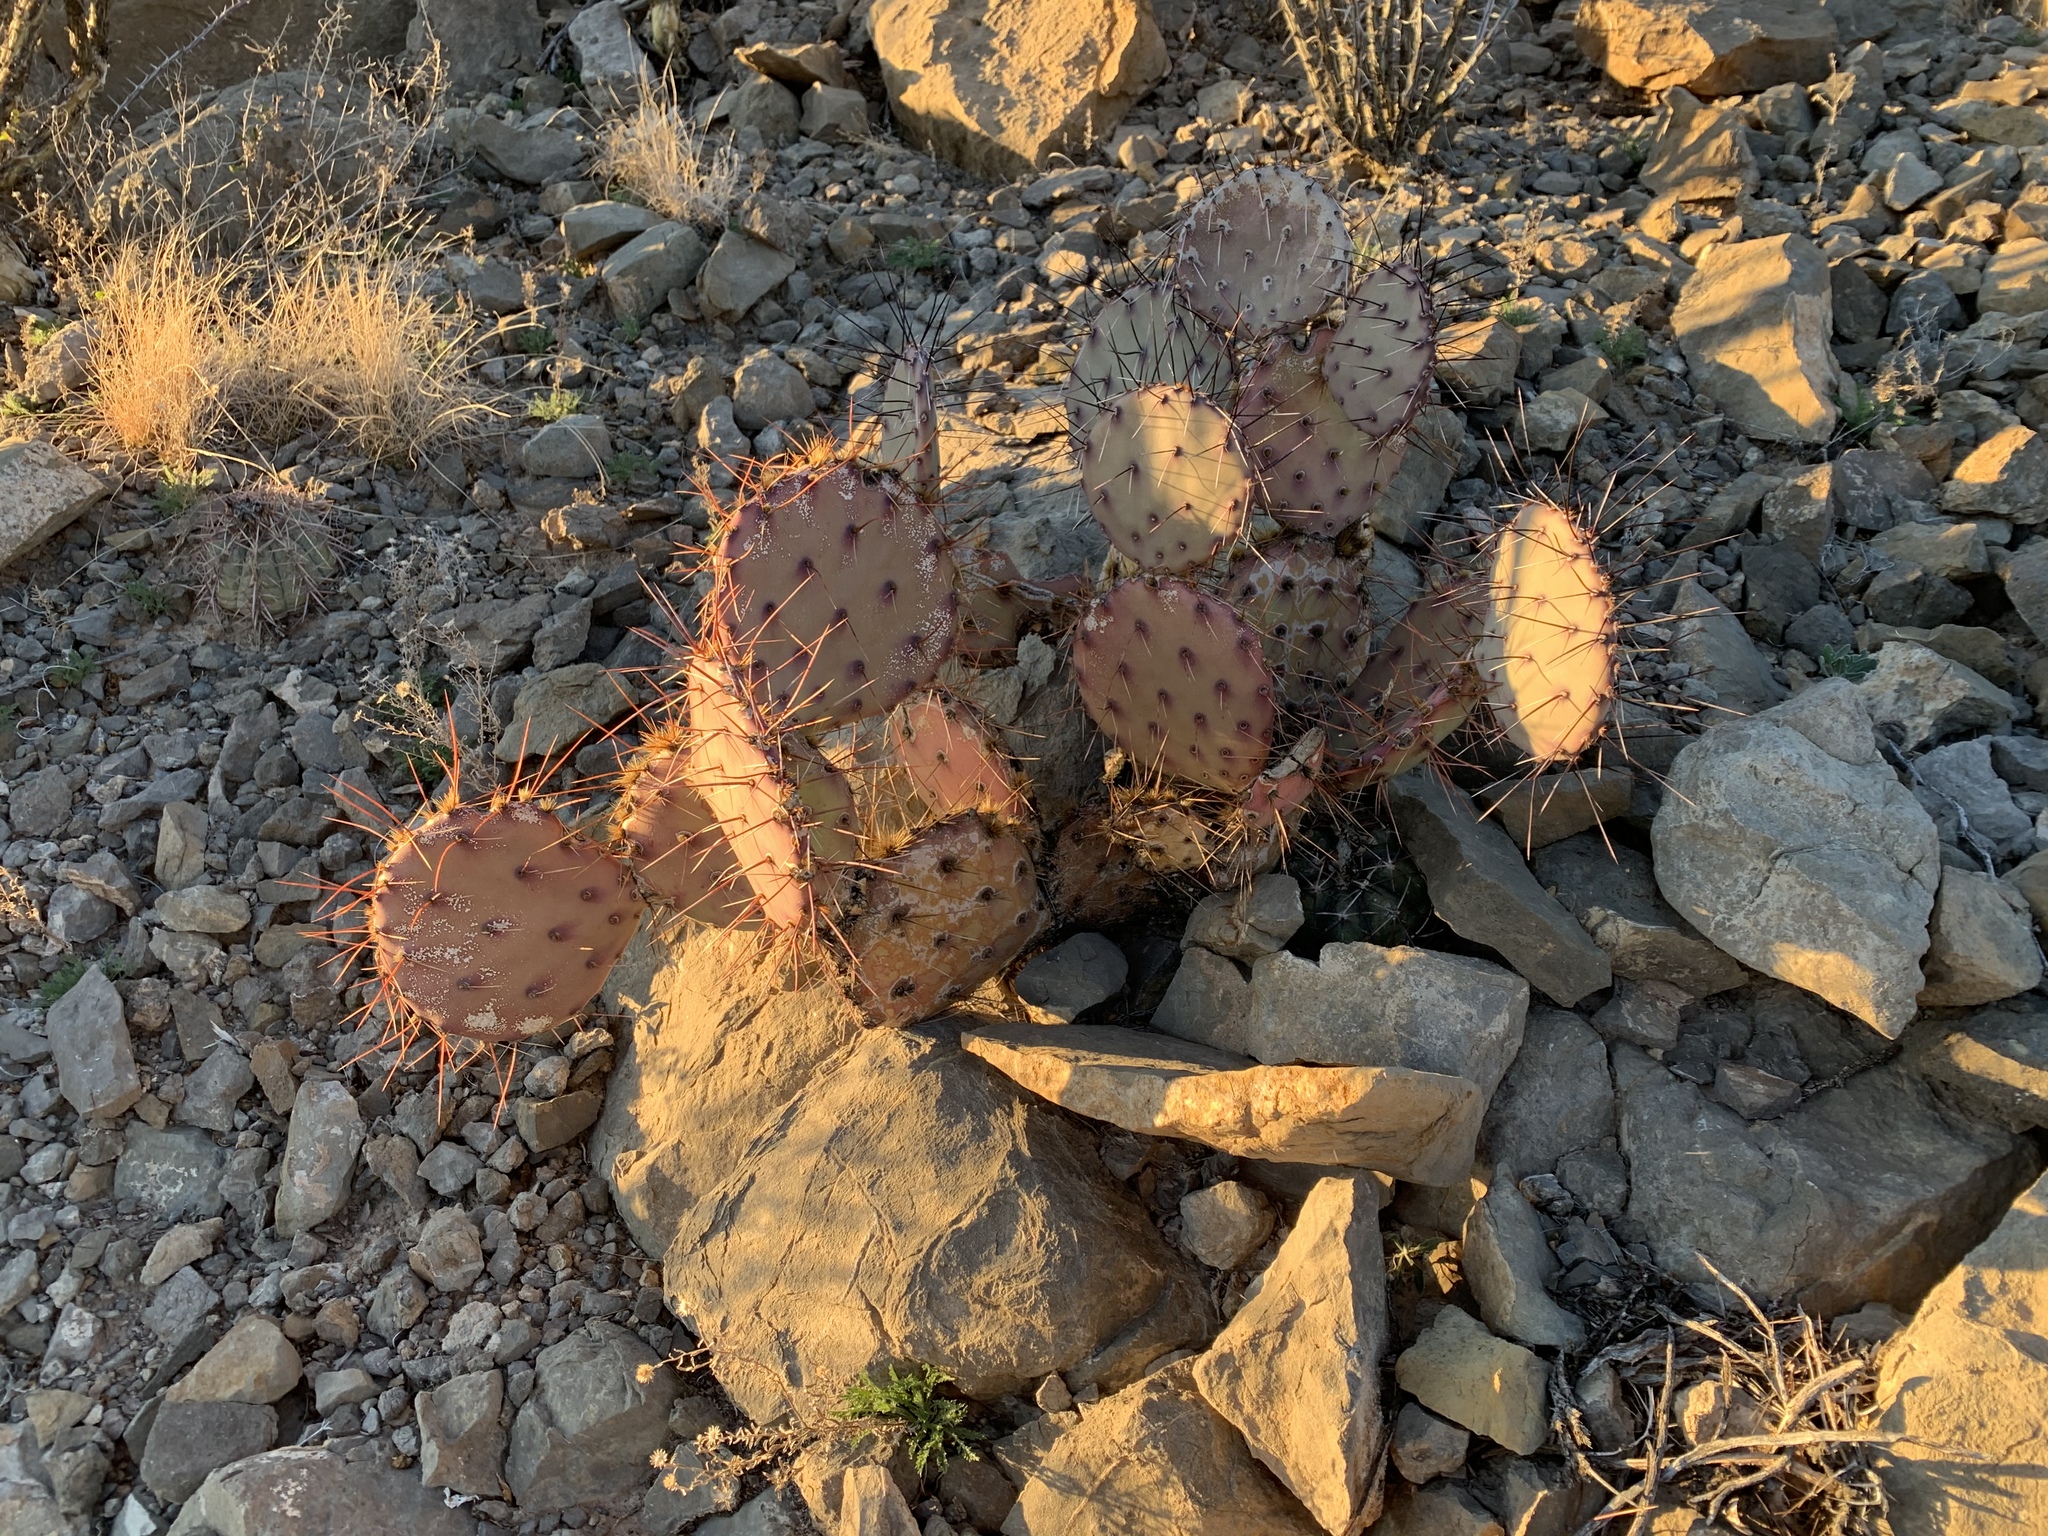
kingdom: Plantae
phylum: Tracheophyta
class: Magnoliopsida
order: Caryophyllales
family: Cactaceae
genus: Opuntia
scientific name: Opuntia macrocentra
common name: Purple prickly-pear
